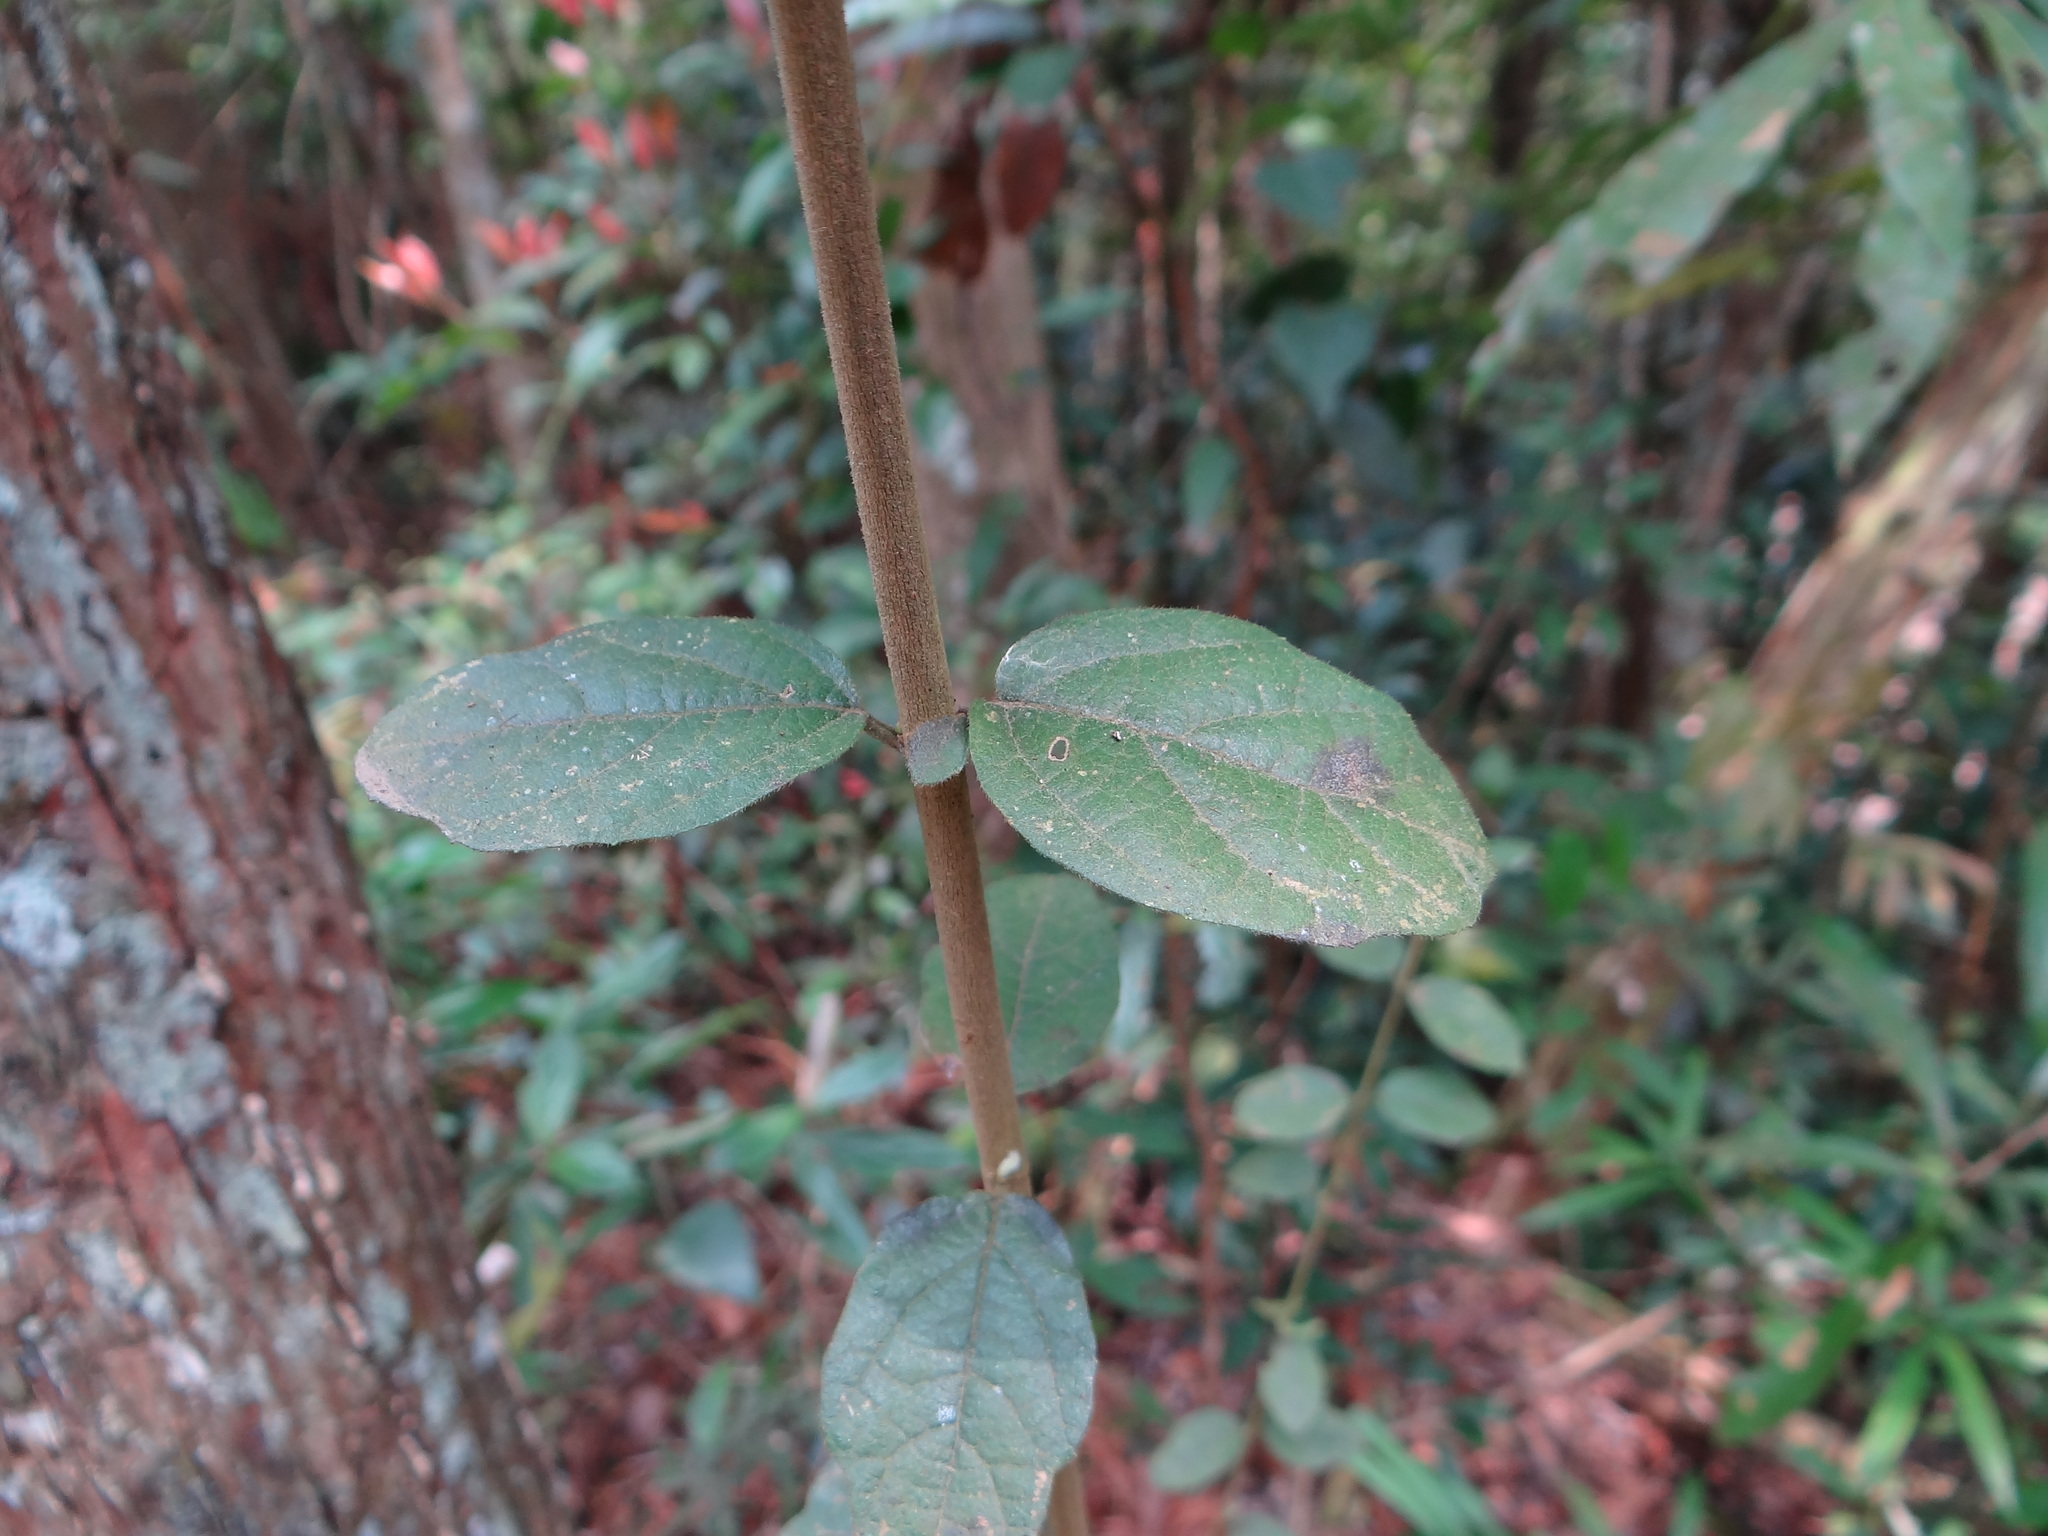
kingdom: Plantae
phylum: Tracheophyta
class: Magnoliopsida
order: Dipsacales
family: Viburnaceae
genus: Viburnum
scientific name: Viburnum luzonicum
